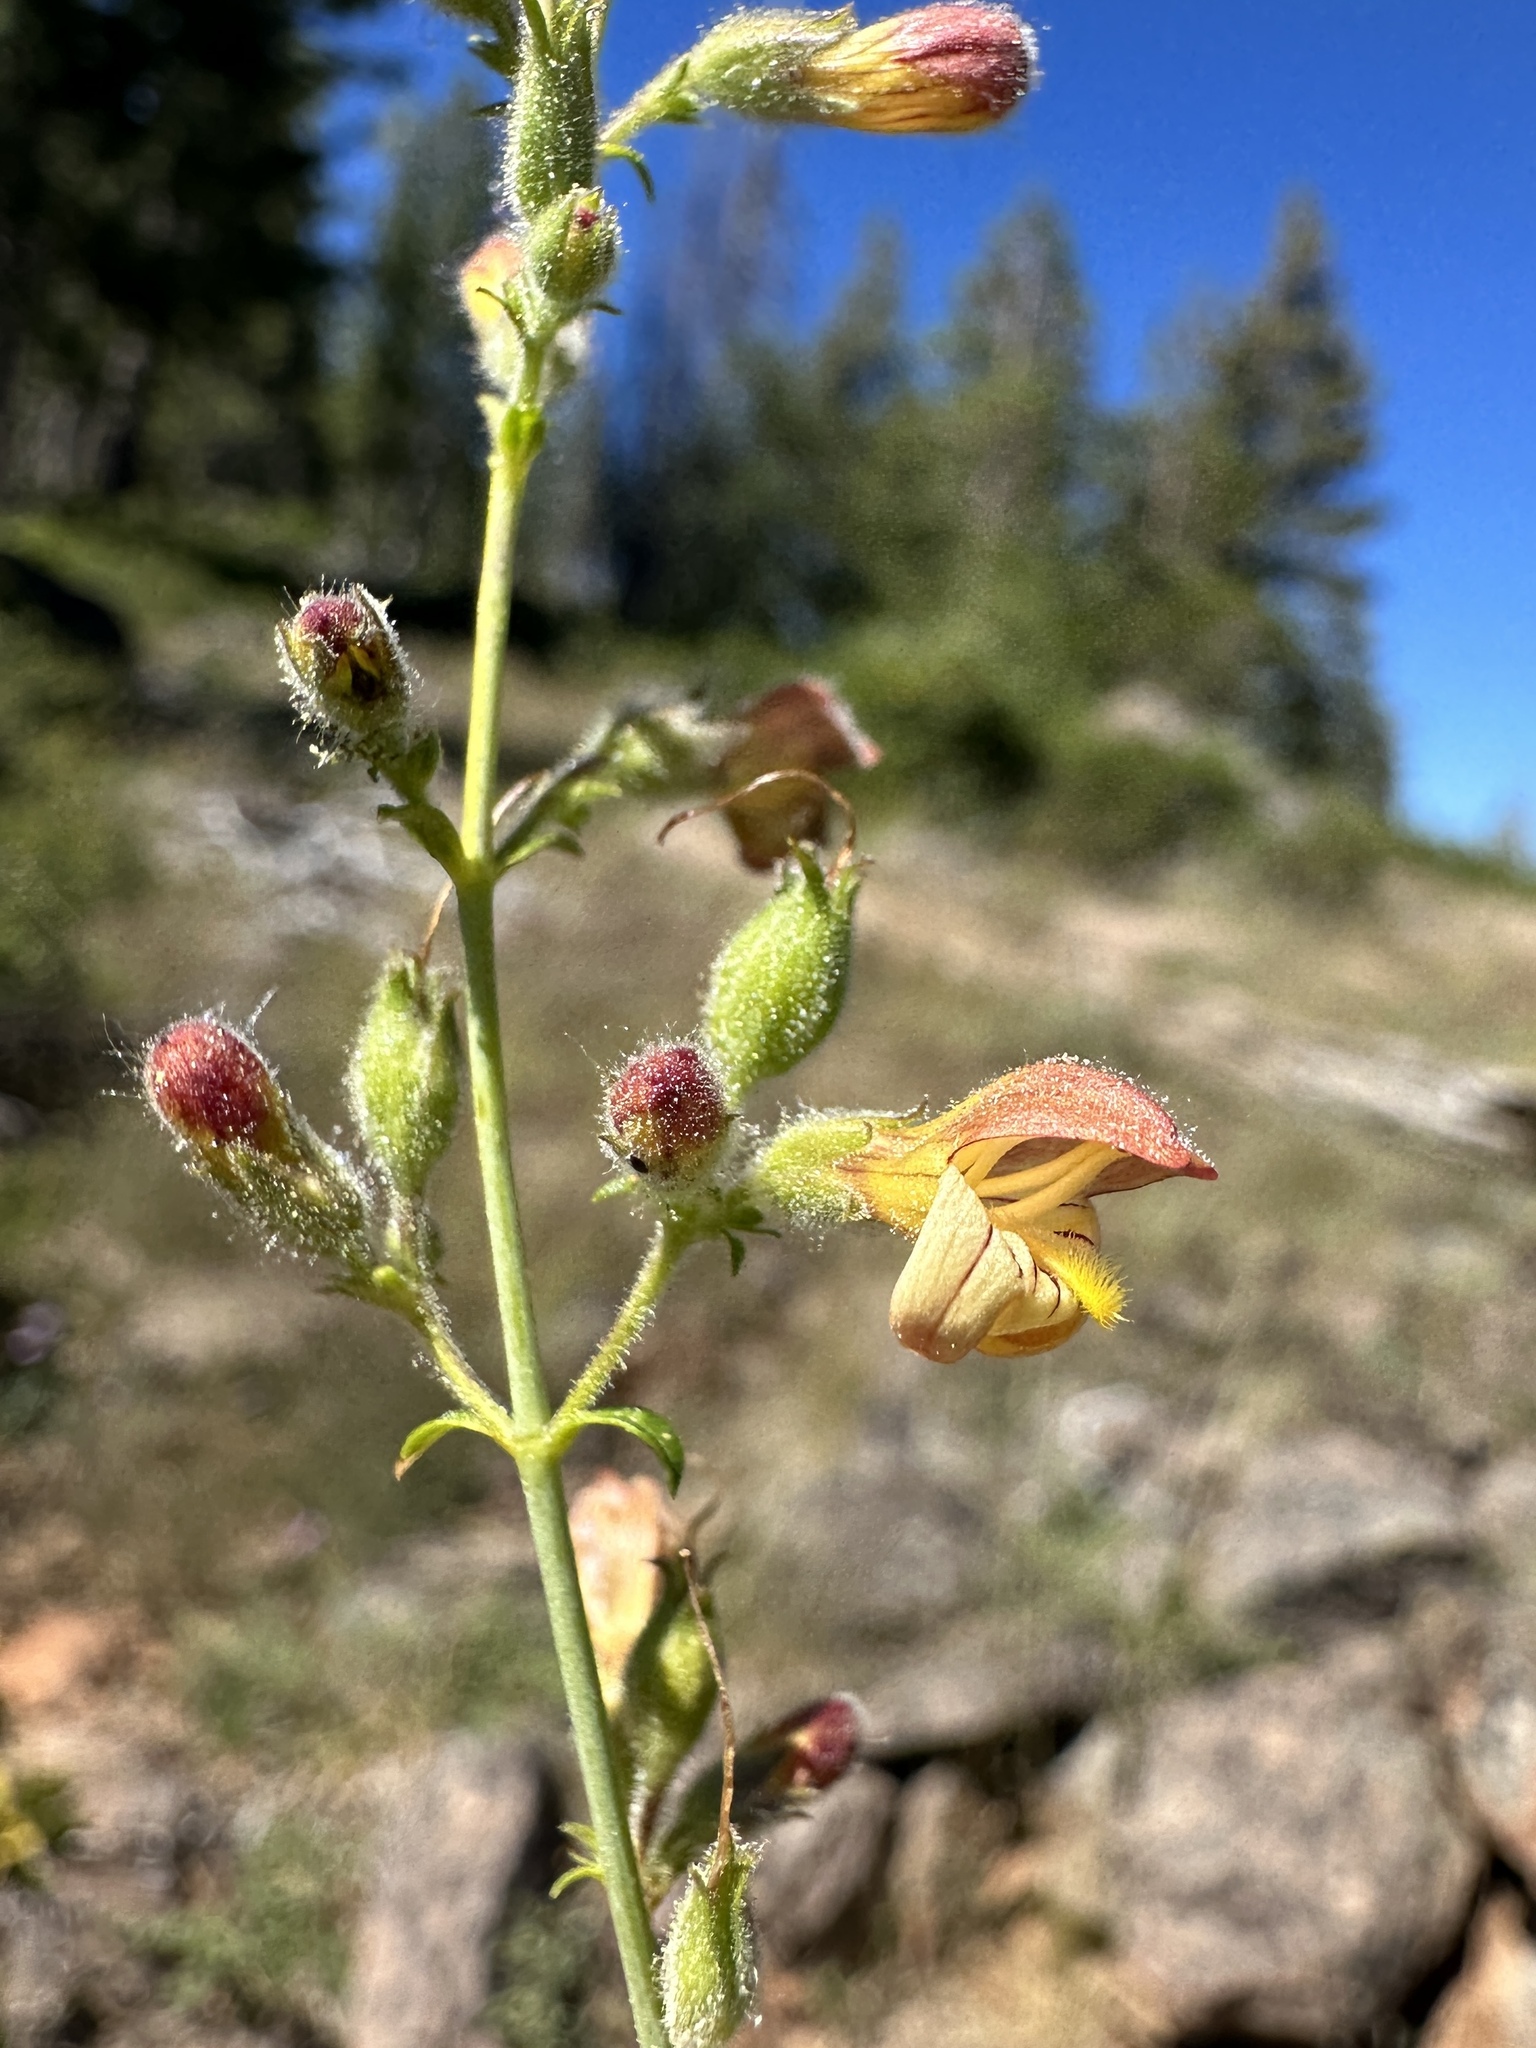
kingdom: Plantae
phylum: Tracheophyta
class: Magnoliopsida
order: Lamiales
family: Plantaginaceae
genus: Keckiella
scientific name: Keckiella lemmonii
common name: Lemmon's keckiella
